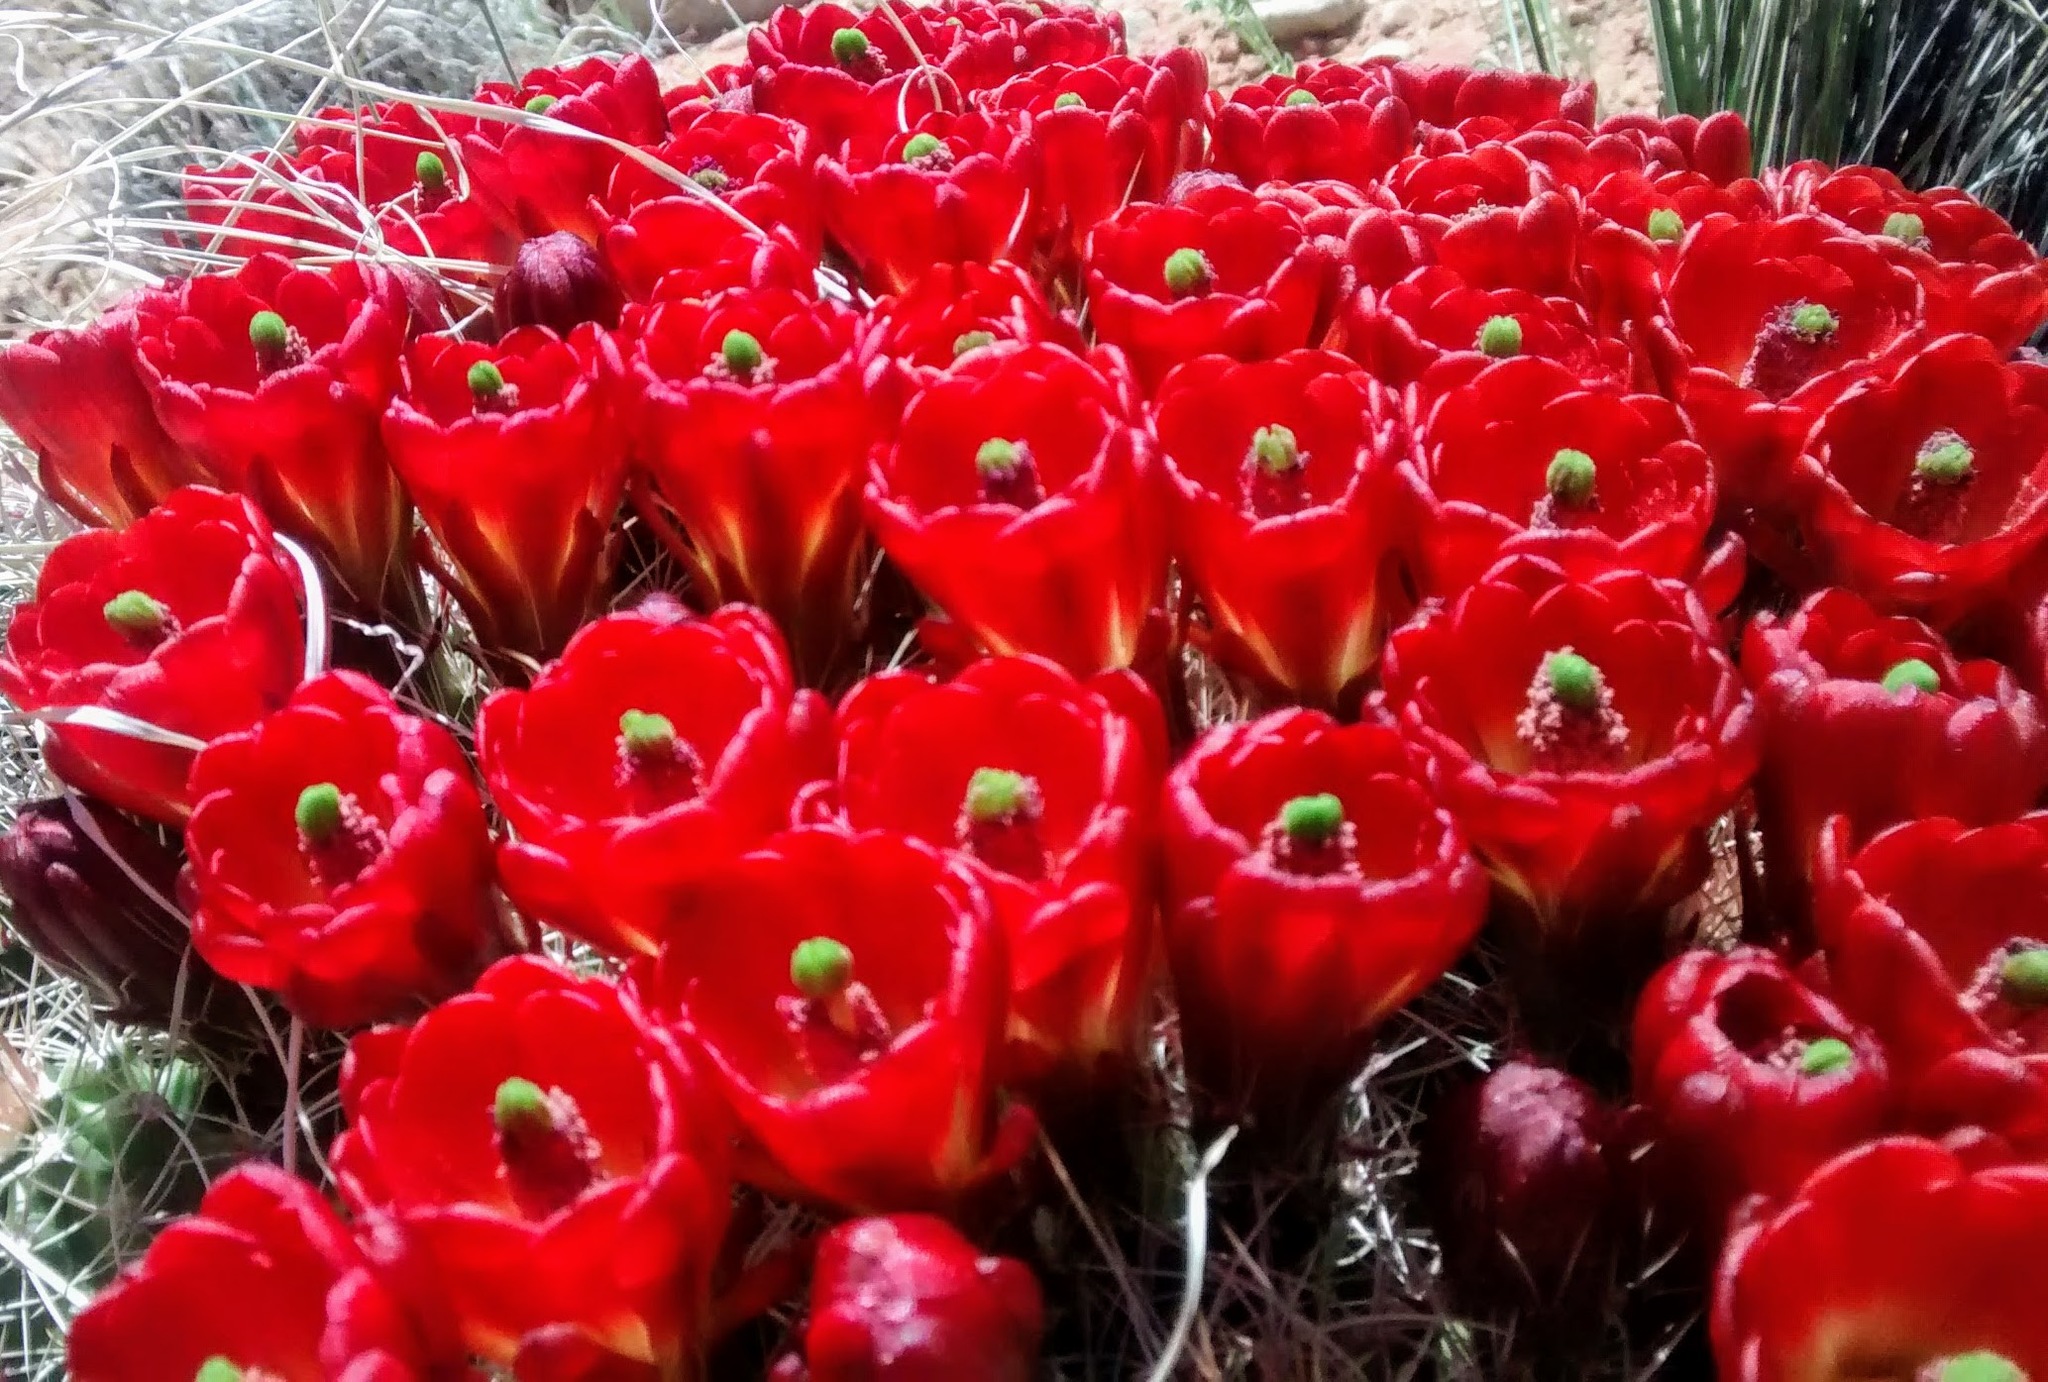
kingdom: Plantae
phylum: Tracheophyta
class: Magnoliopsida
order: Caryophyllales
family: Cactaceae
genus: Echinocereus
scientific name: Echinocereus triglochidiatus
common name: Claretcup hedgehog
